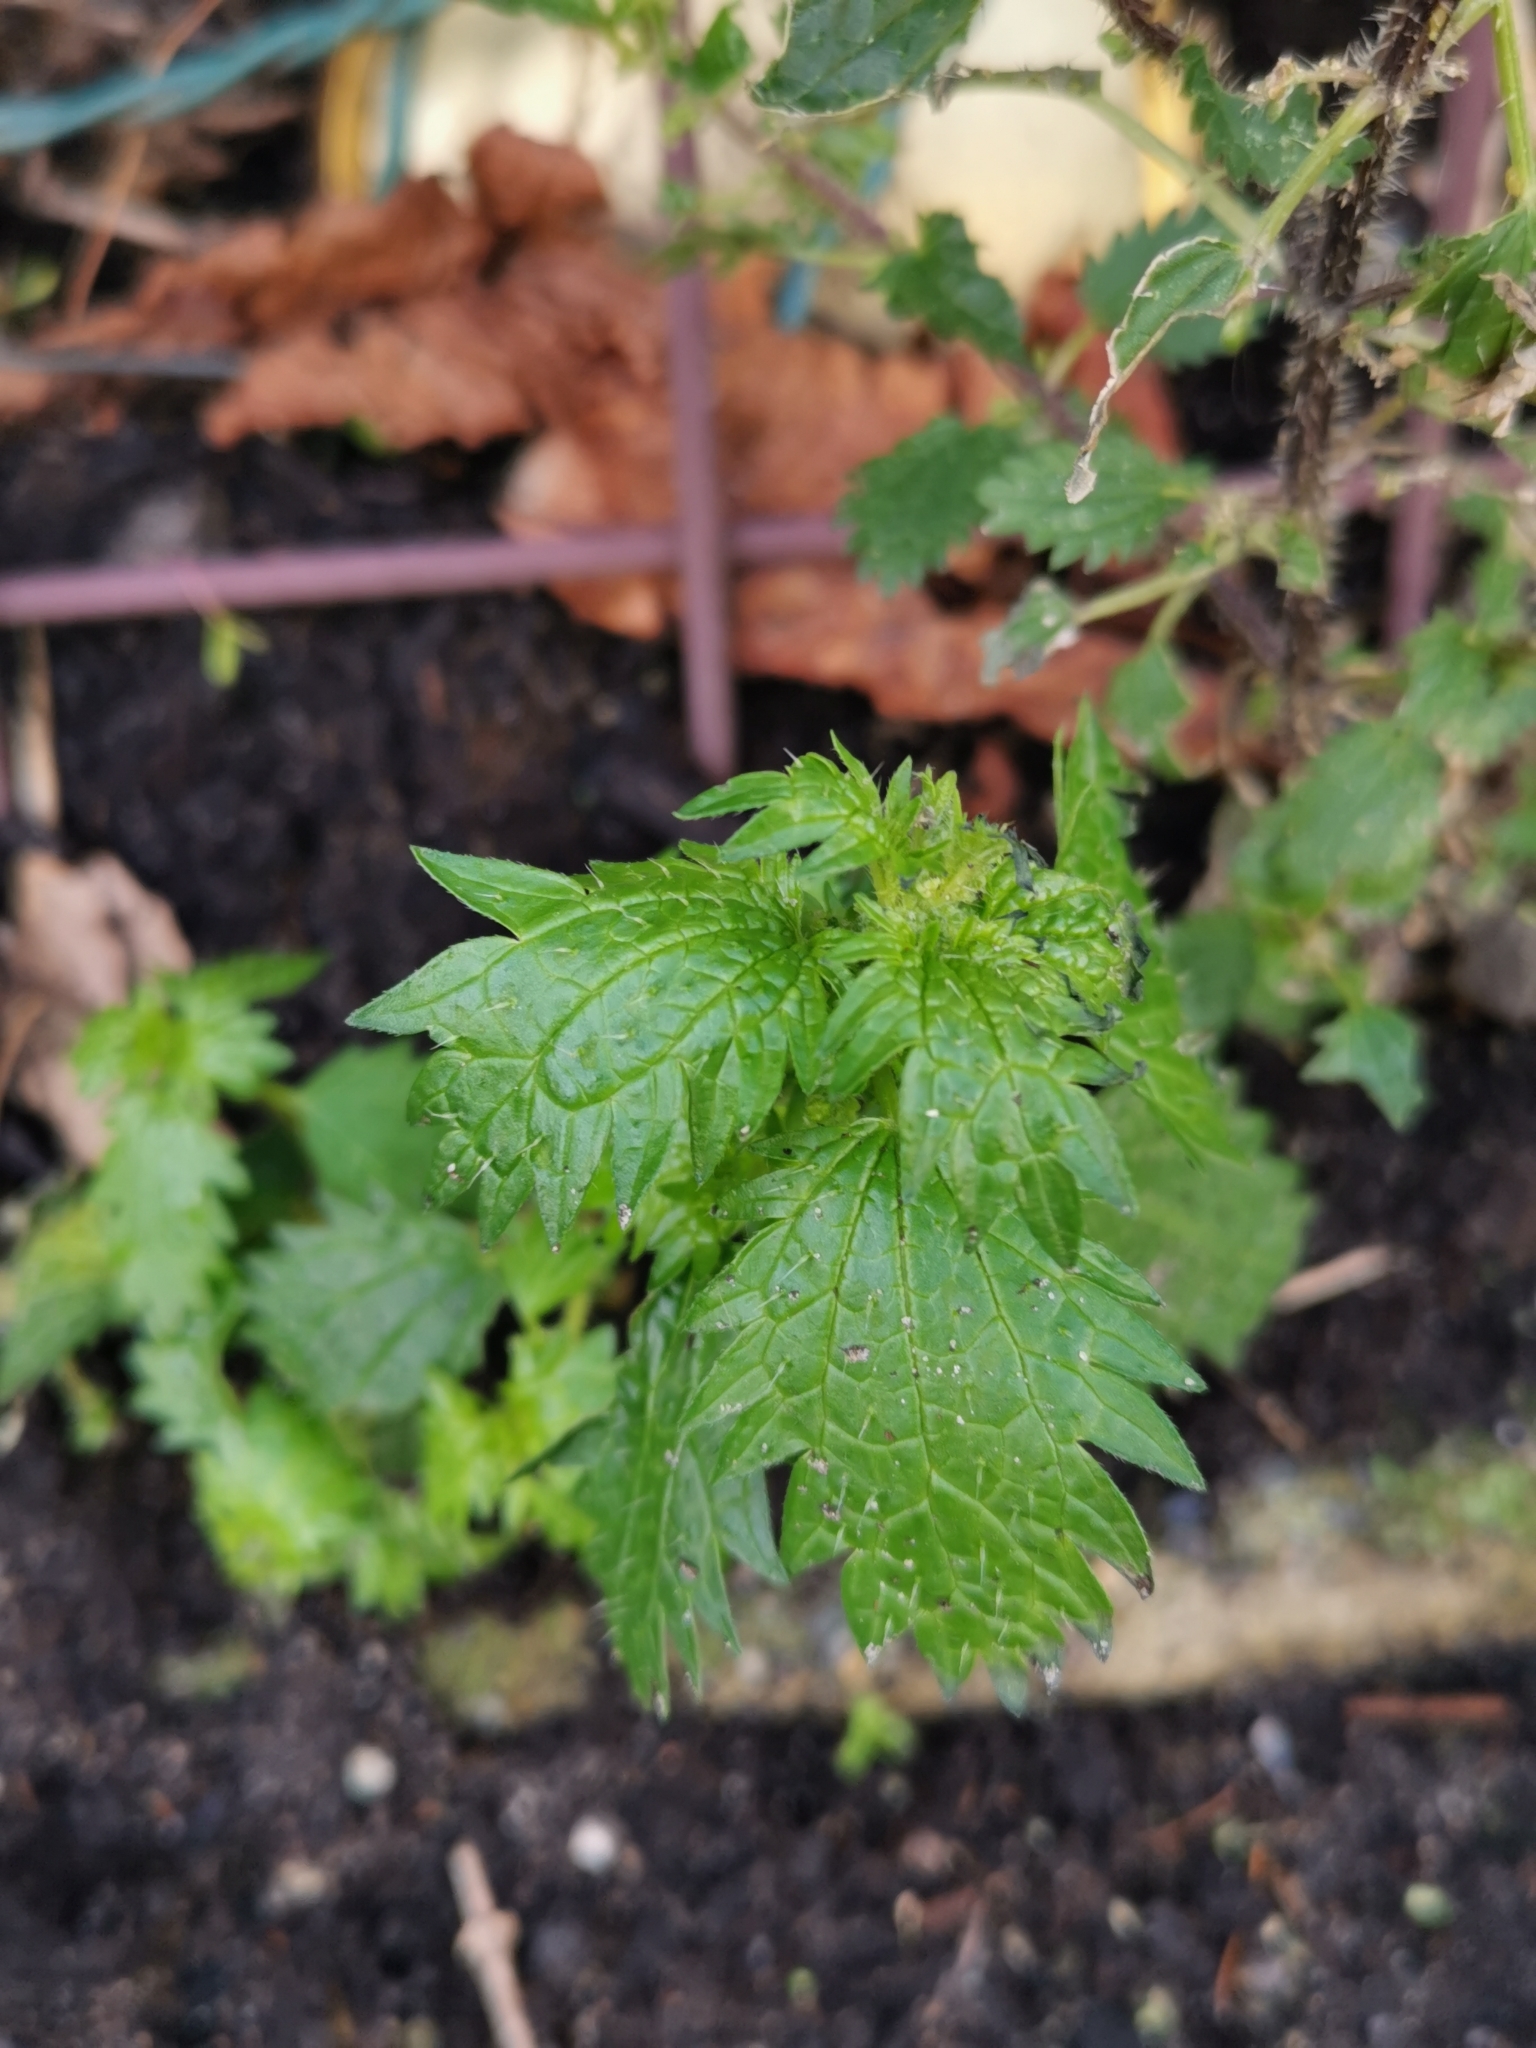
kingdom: Plantae
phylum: Tracheophyta
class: Magnoliopsida
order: Rosales
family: Urticaceae
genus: Urtica
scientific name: Urtica urens
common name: Dwarf nettle
